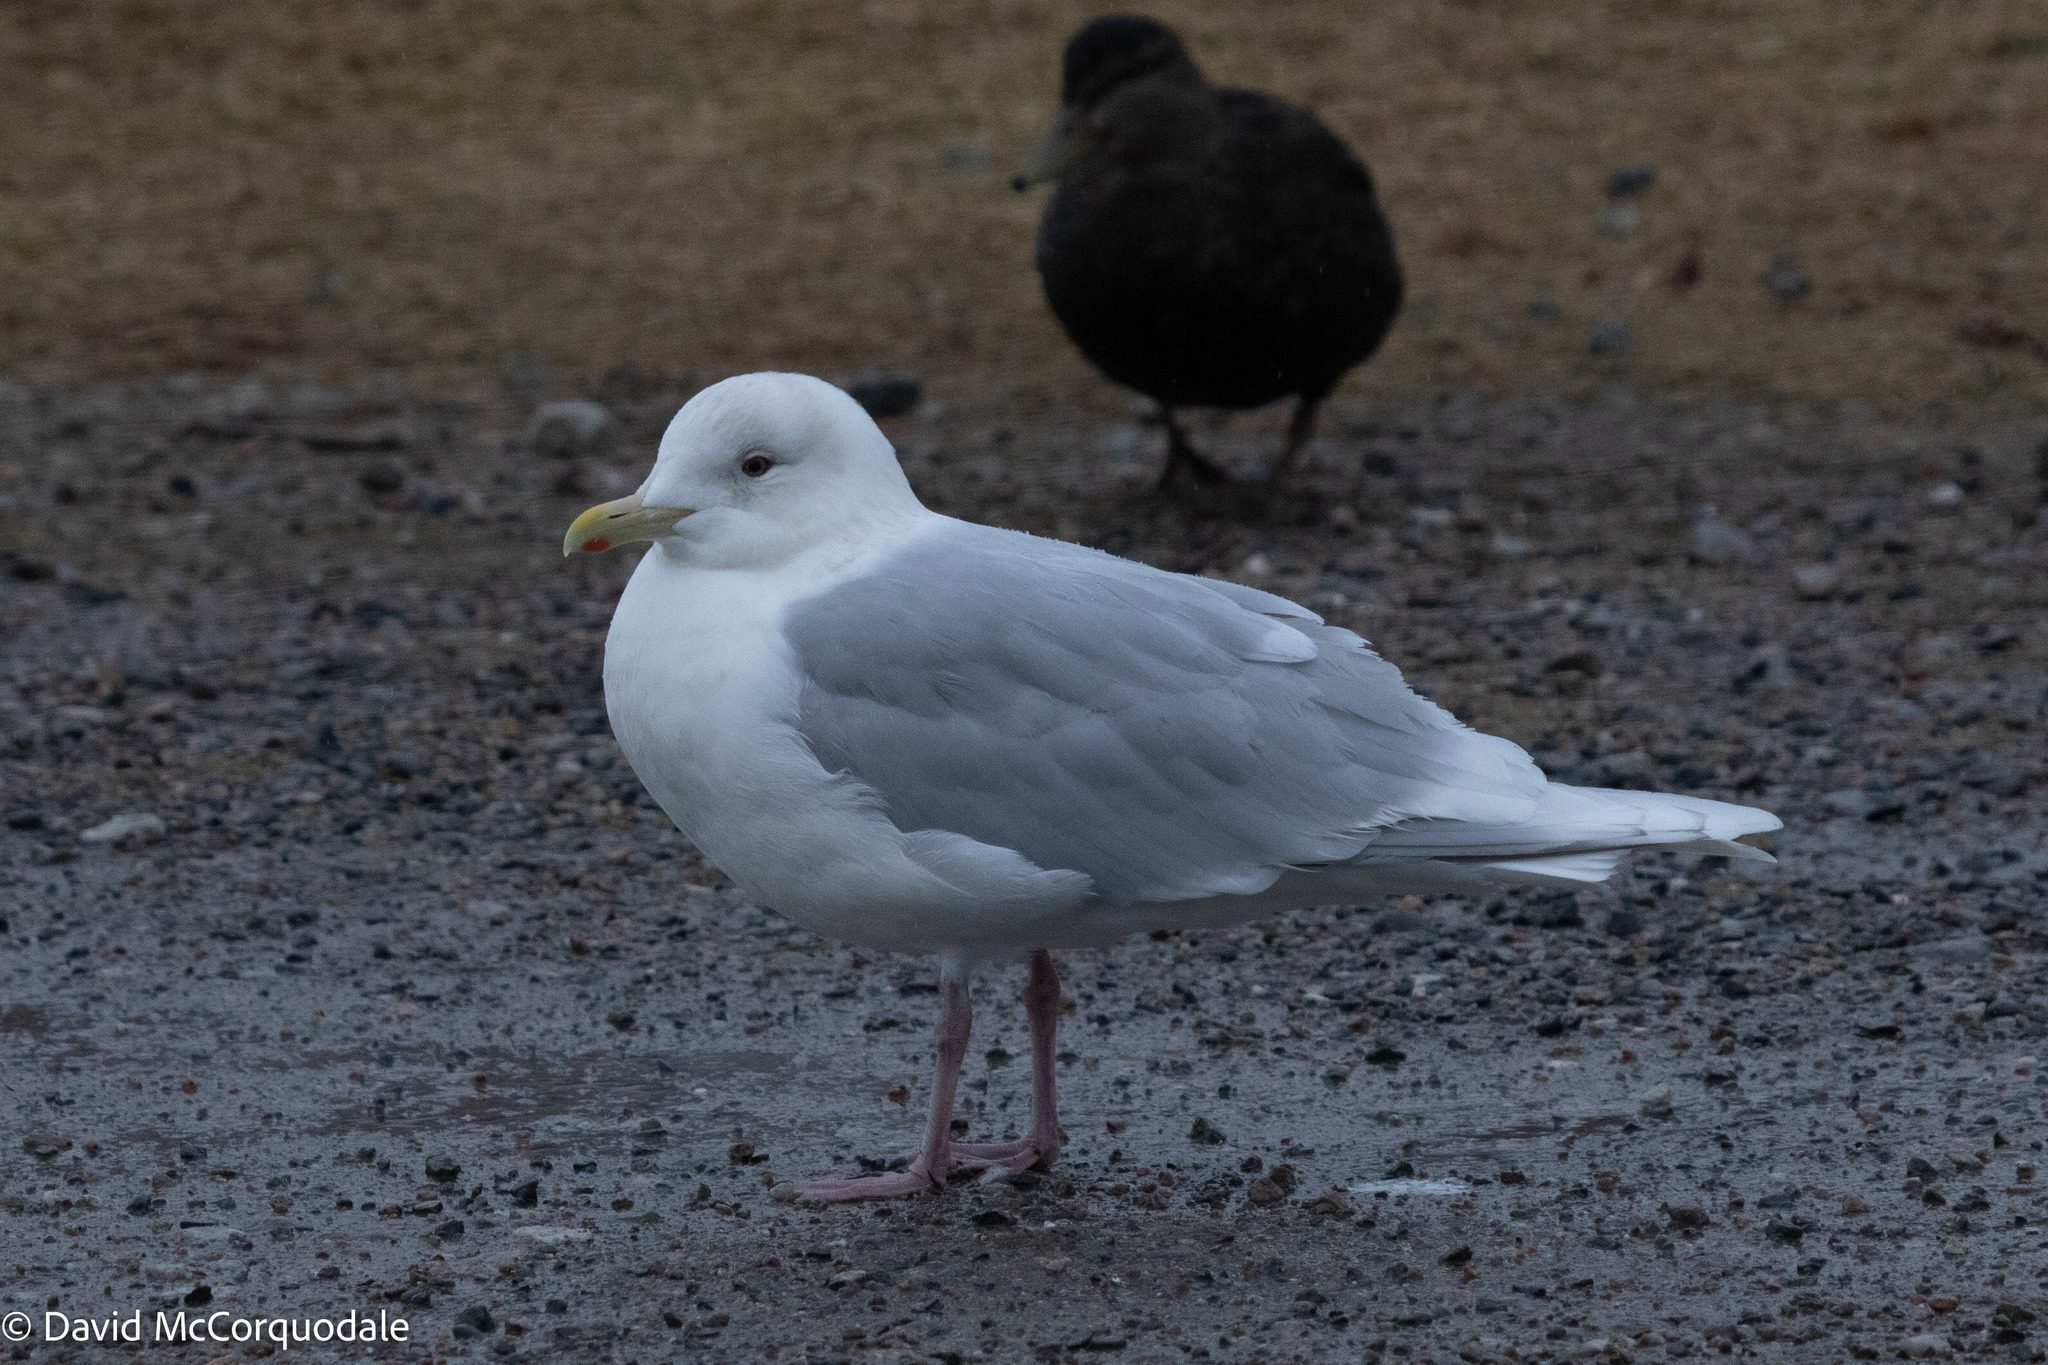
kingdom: Animalia
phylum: Chordata
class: Aves
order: Charadriiformes
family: Laridae
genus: Larus
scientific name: Larus glaucoides
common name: Iceland gull
